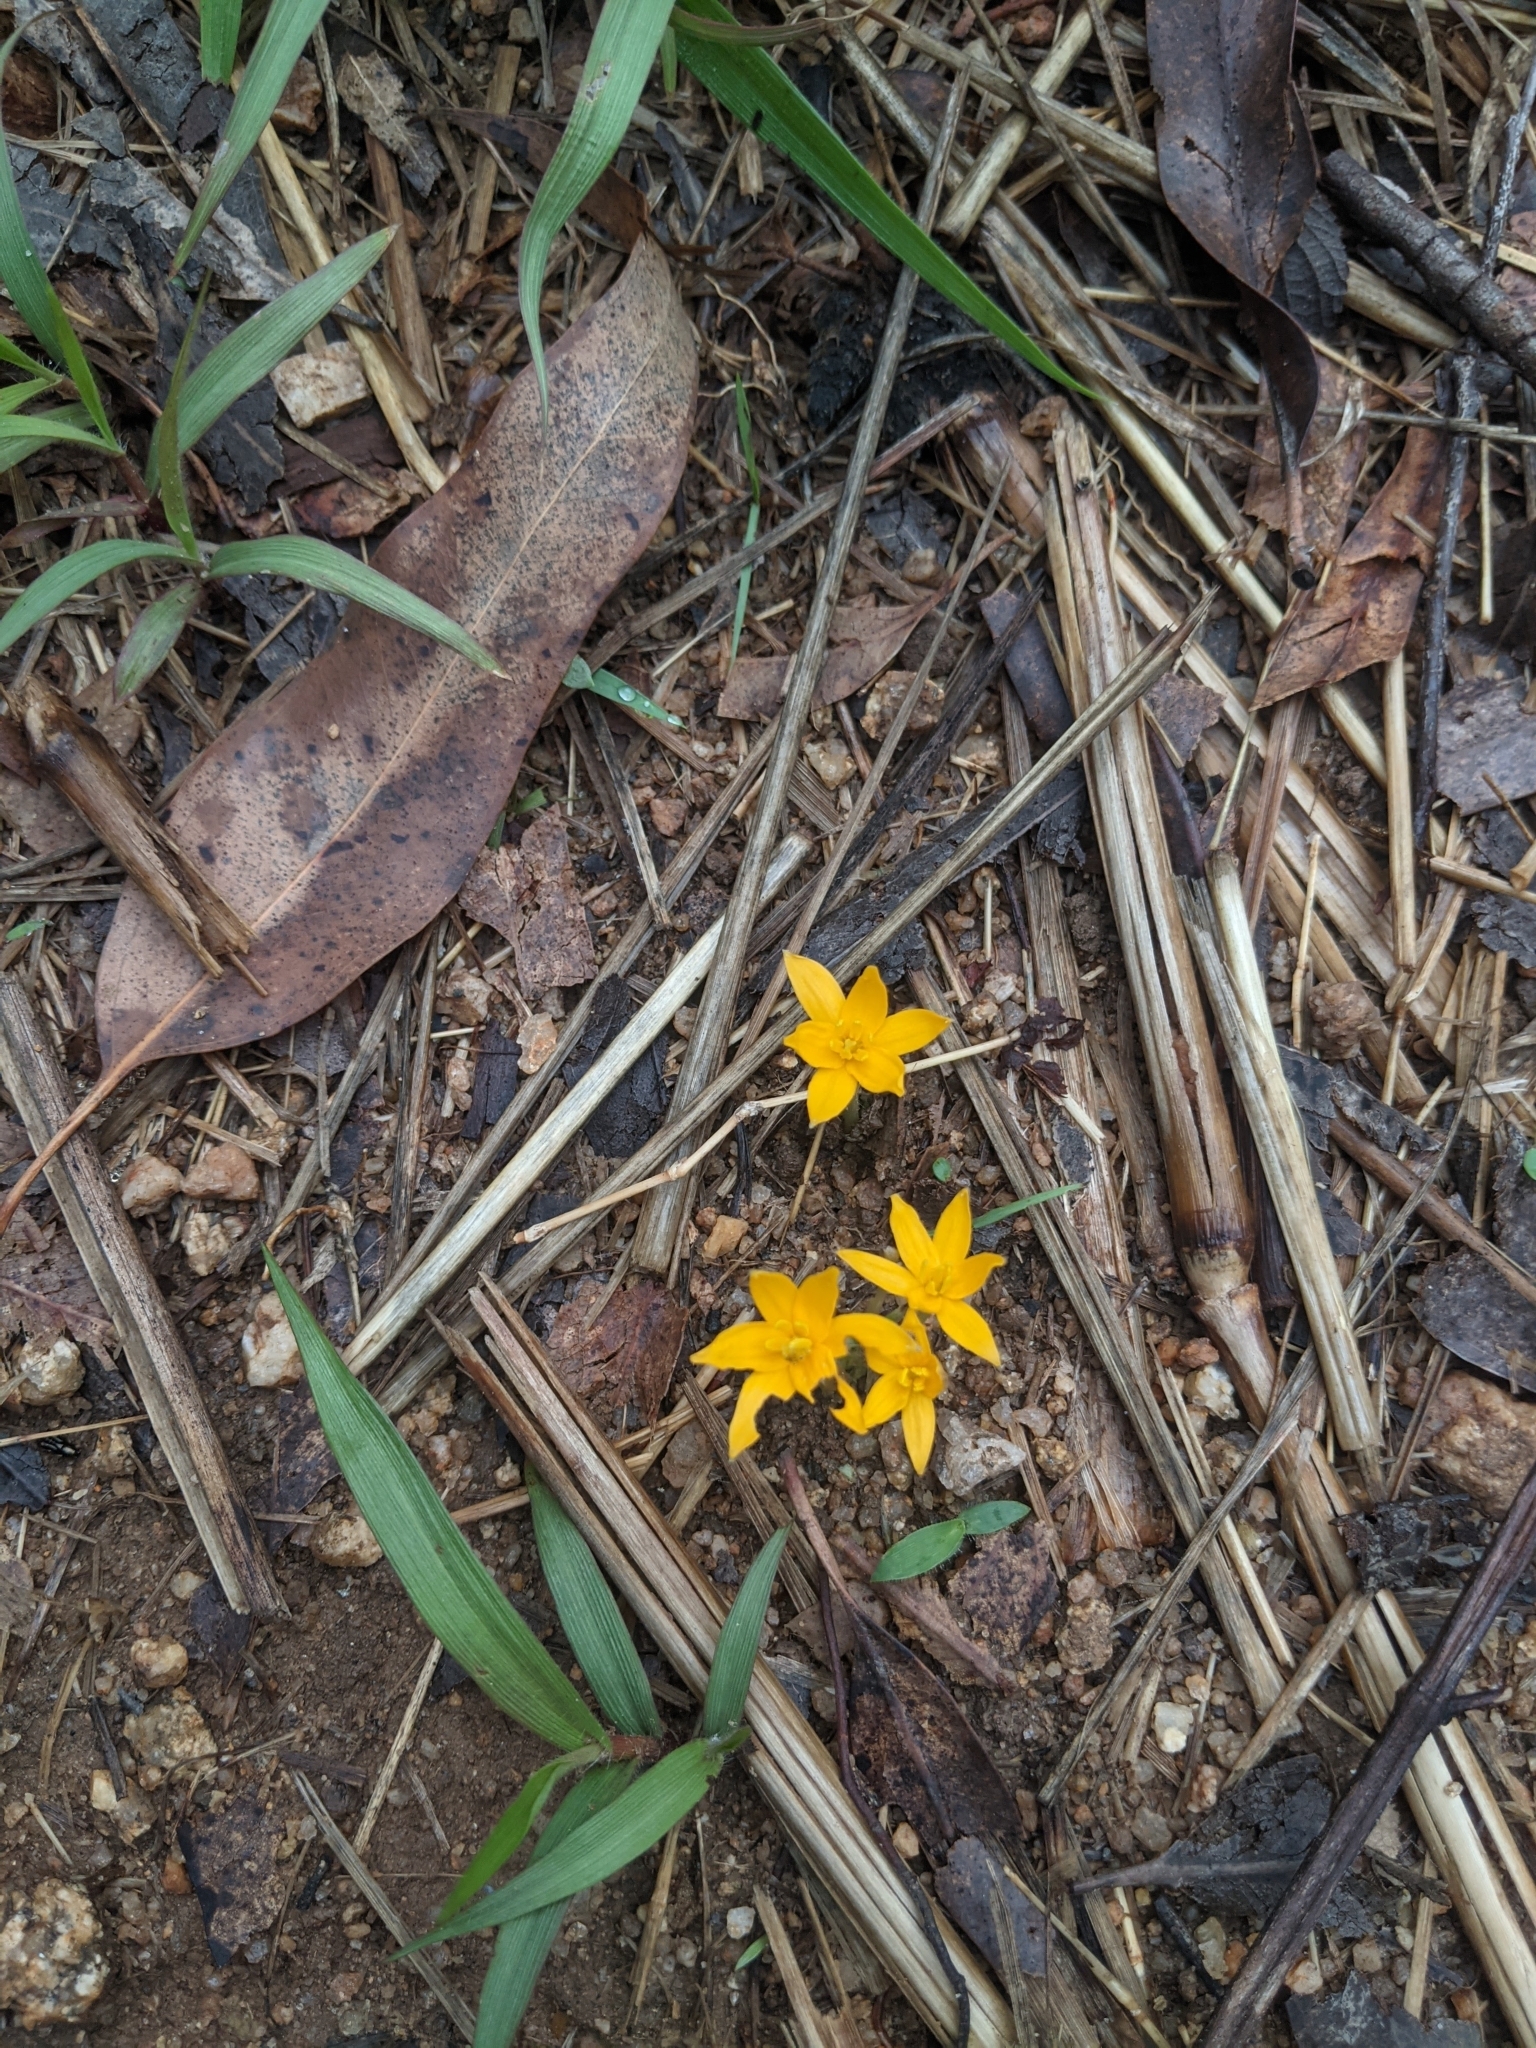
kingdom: Plantae
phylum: Tracheophyta
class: Liliopsida
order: Asparagales
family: Hypoxidaceae
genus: Curculigo
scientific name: Curculigo orchioides
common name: Golden eye-grass
